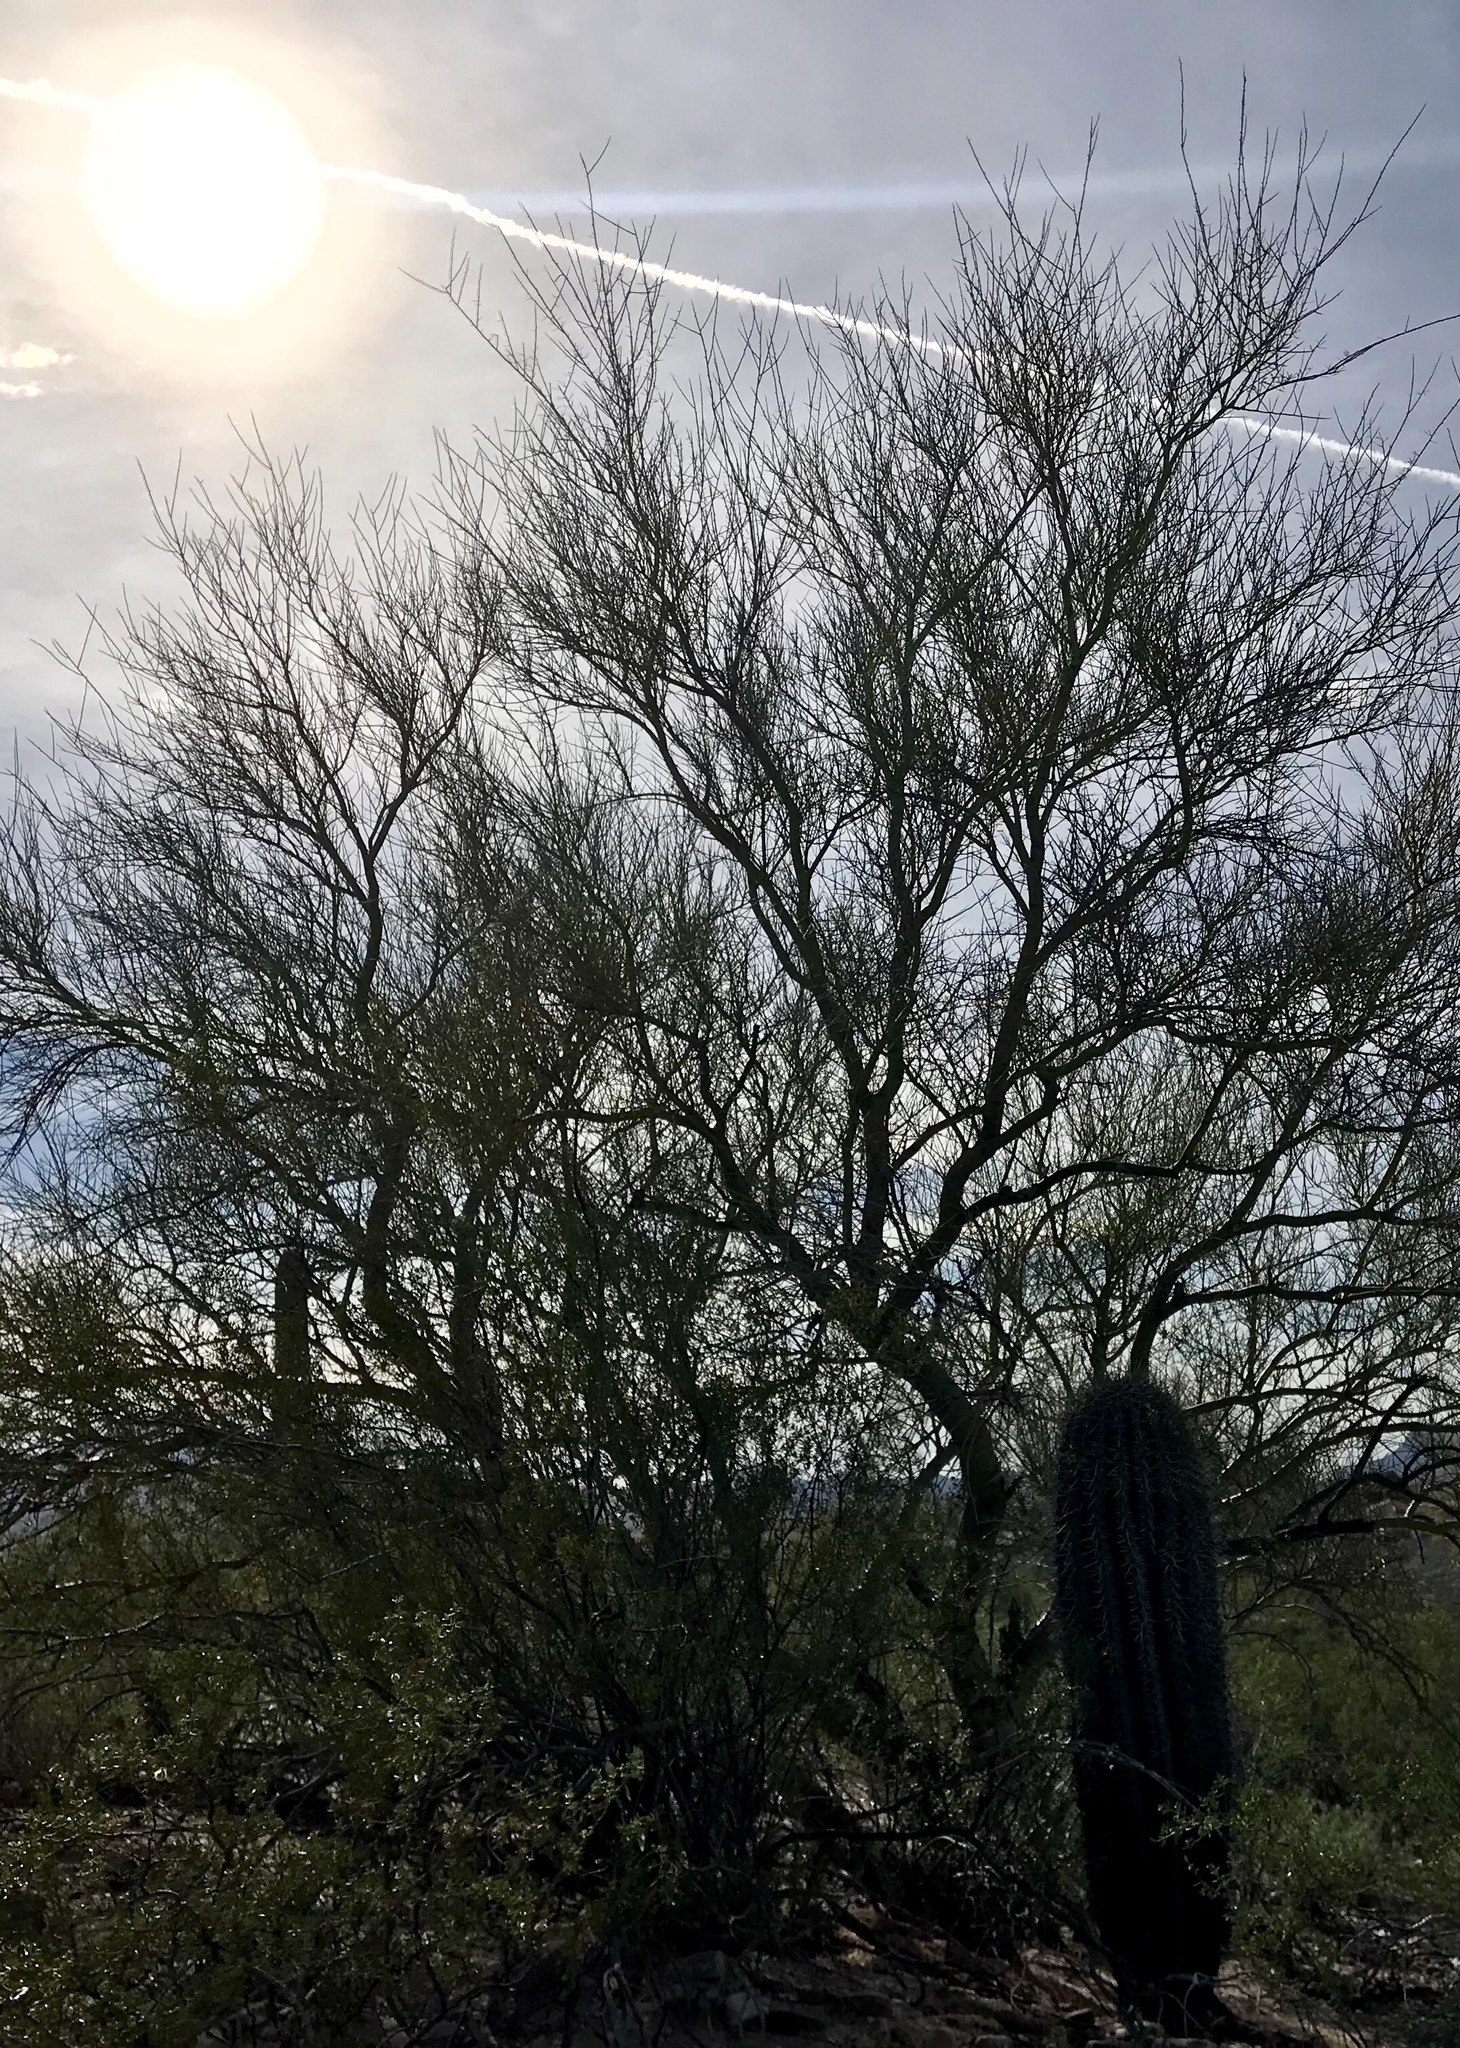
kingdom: Plantae
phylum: Tracheophyta
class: Magnoliopsida
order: Fabales
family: Fabaceae
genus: Parkinsonia
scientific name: Parkinsonia microphylla
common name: Yellow paloverde
